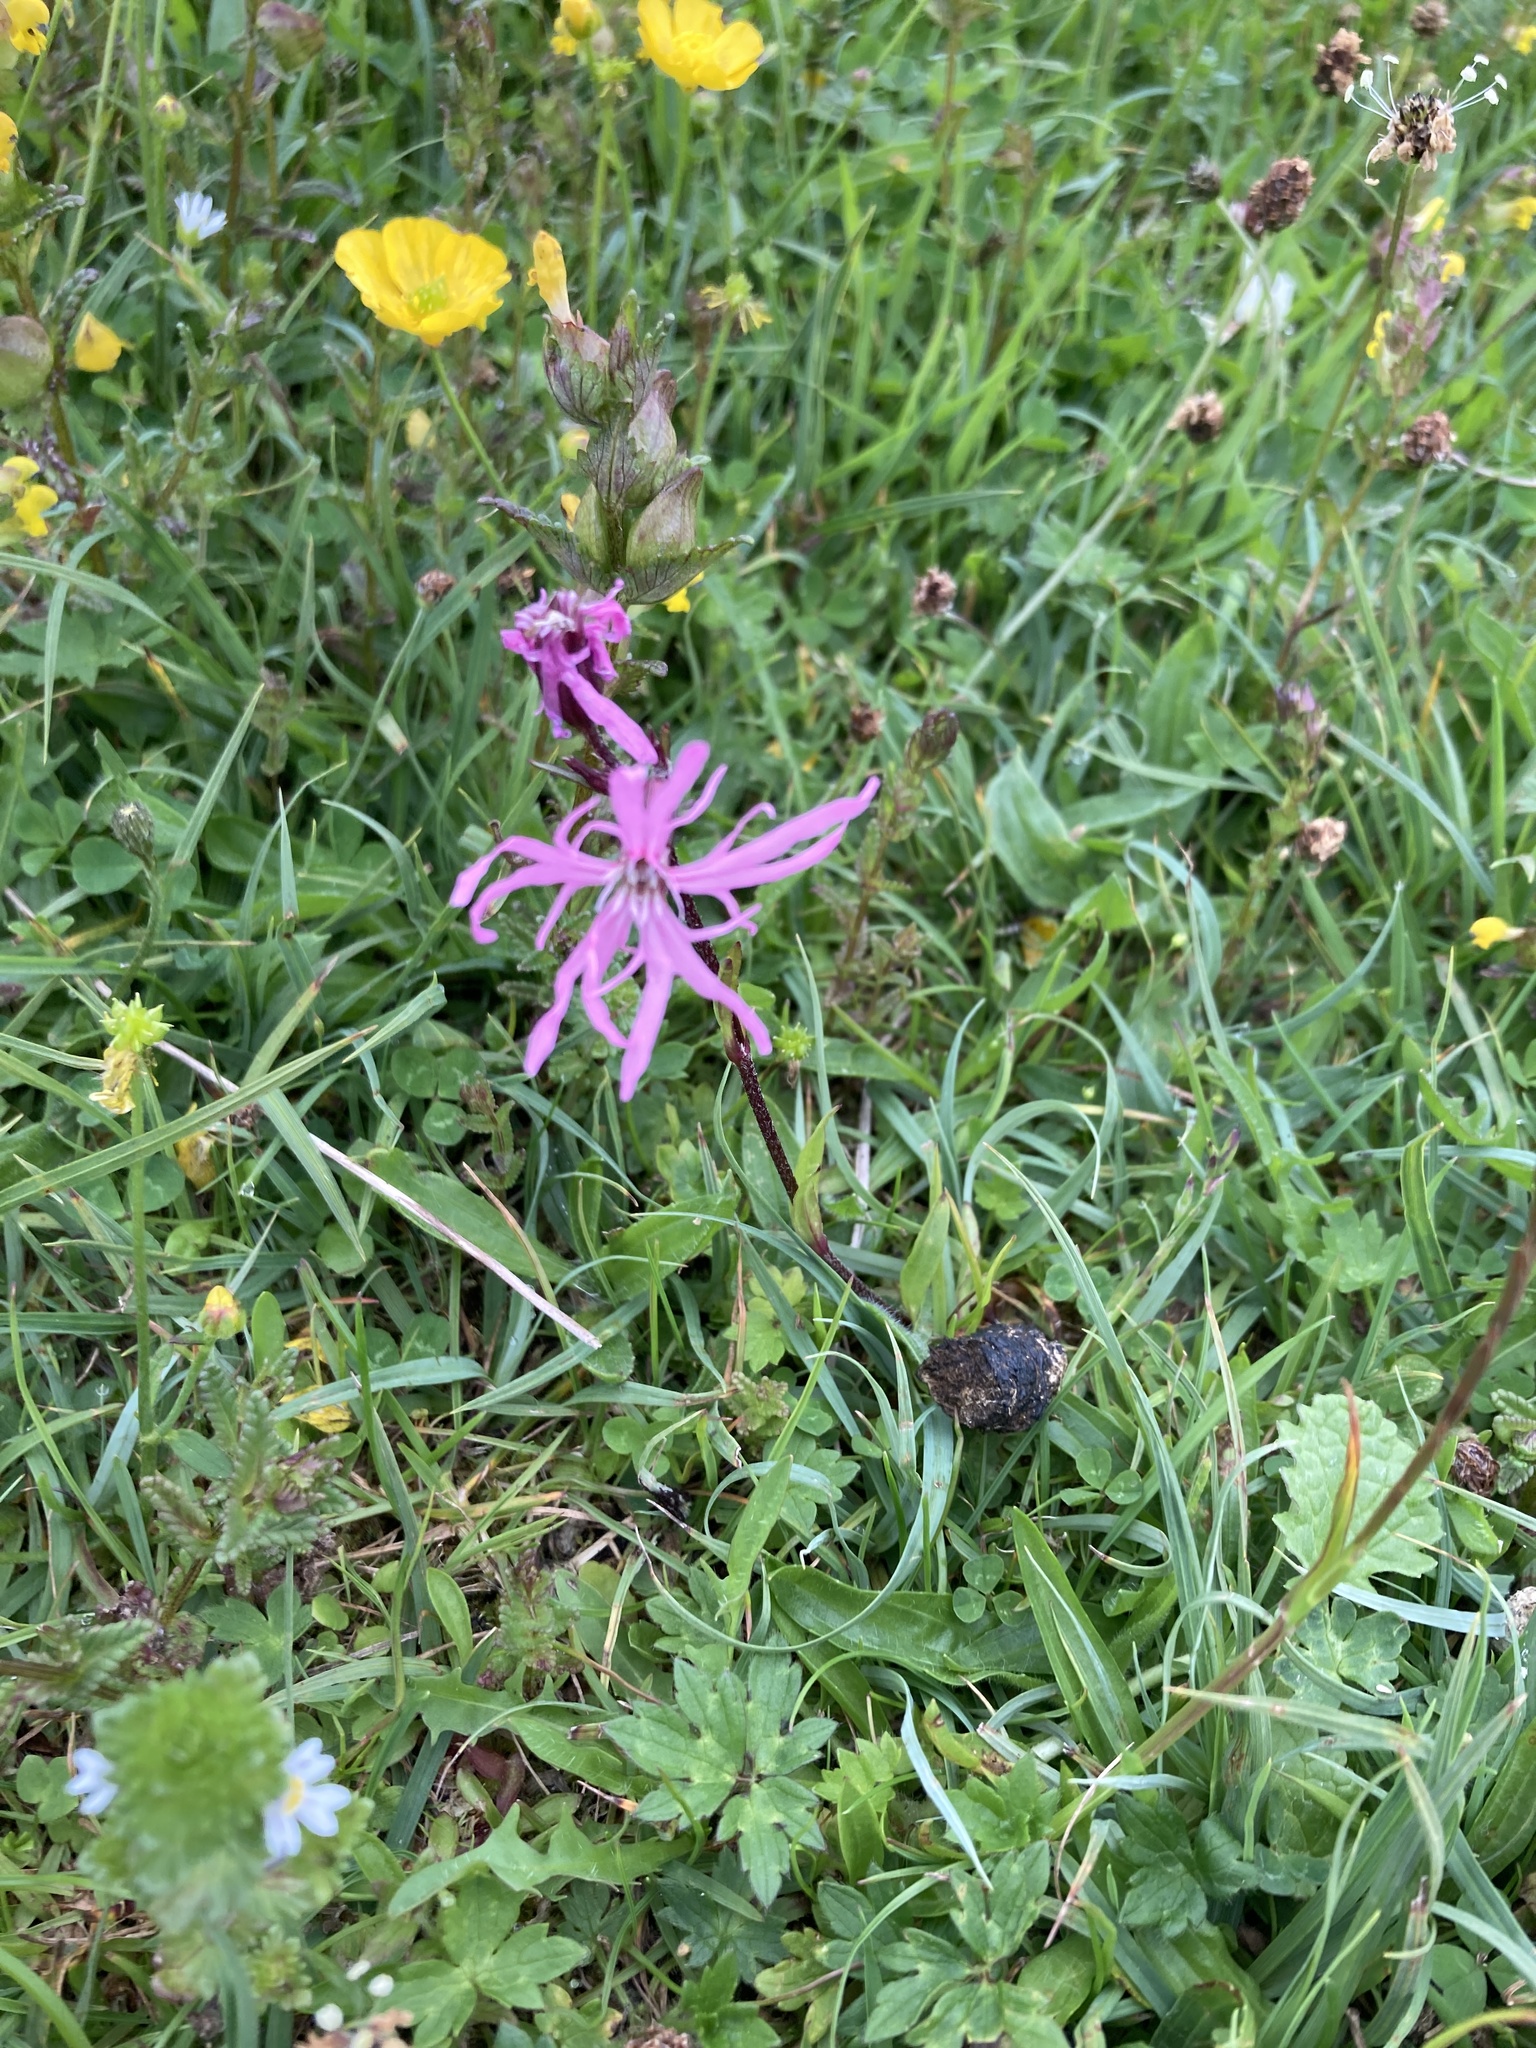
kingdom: Plantae
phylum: Tracheophyta
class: Magnoliopsida
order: Caryophyllales
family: Caryophyllaceae
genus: Silene
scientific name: Silene flos-cuculi
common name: Ragged-robin
